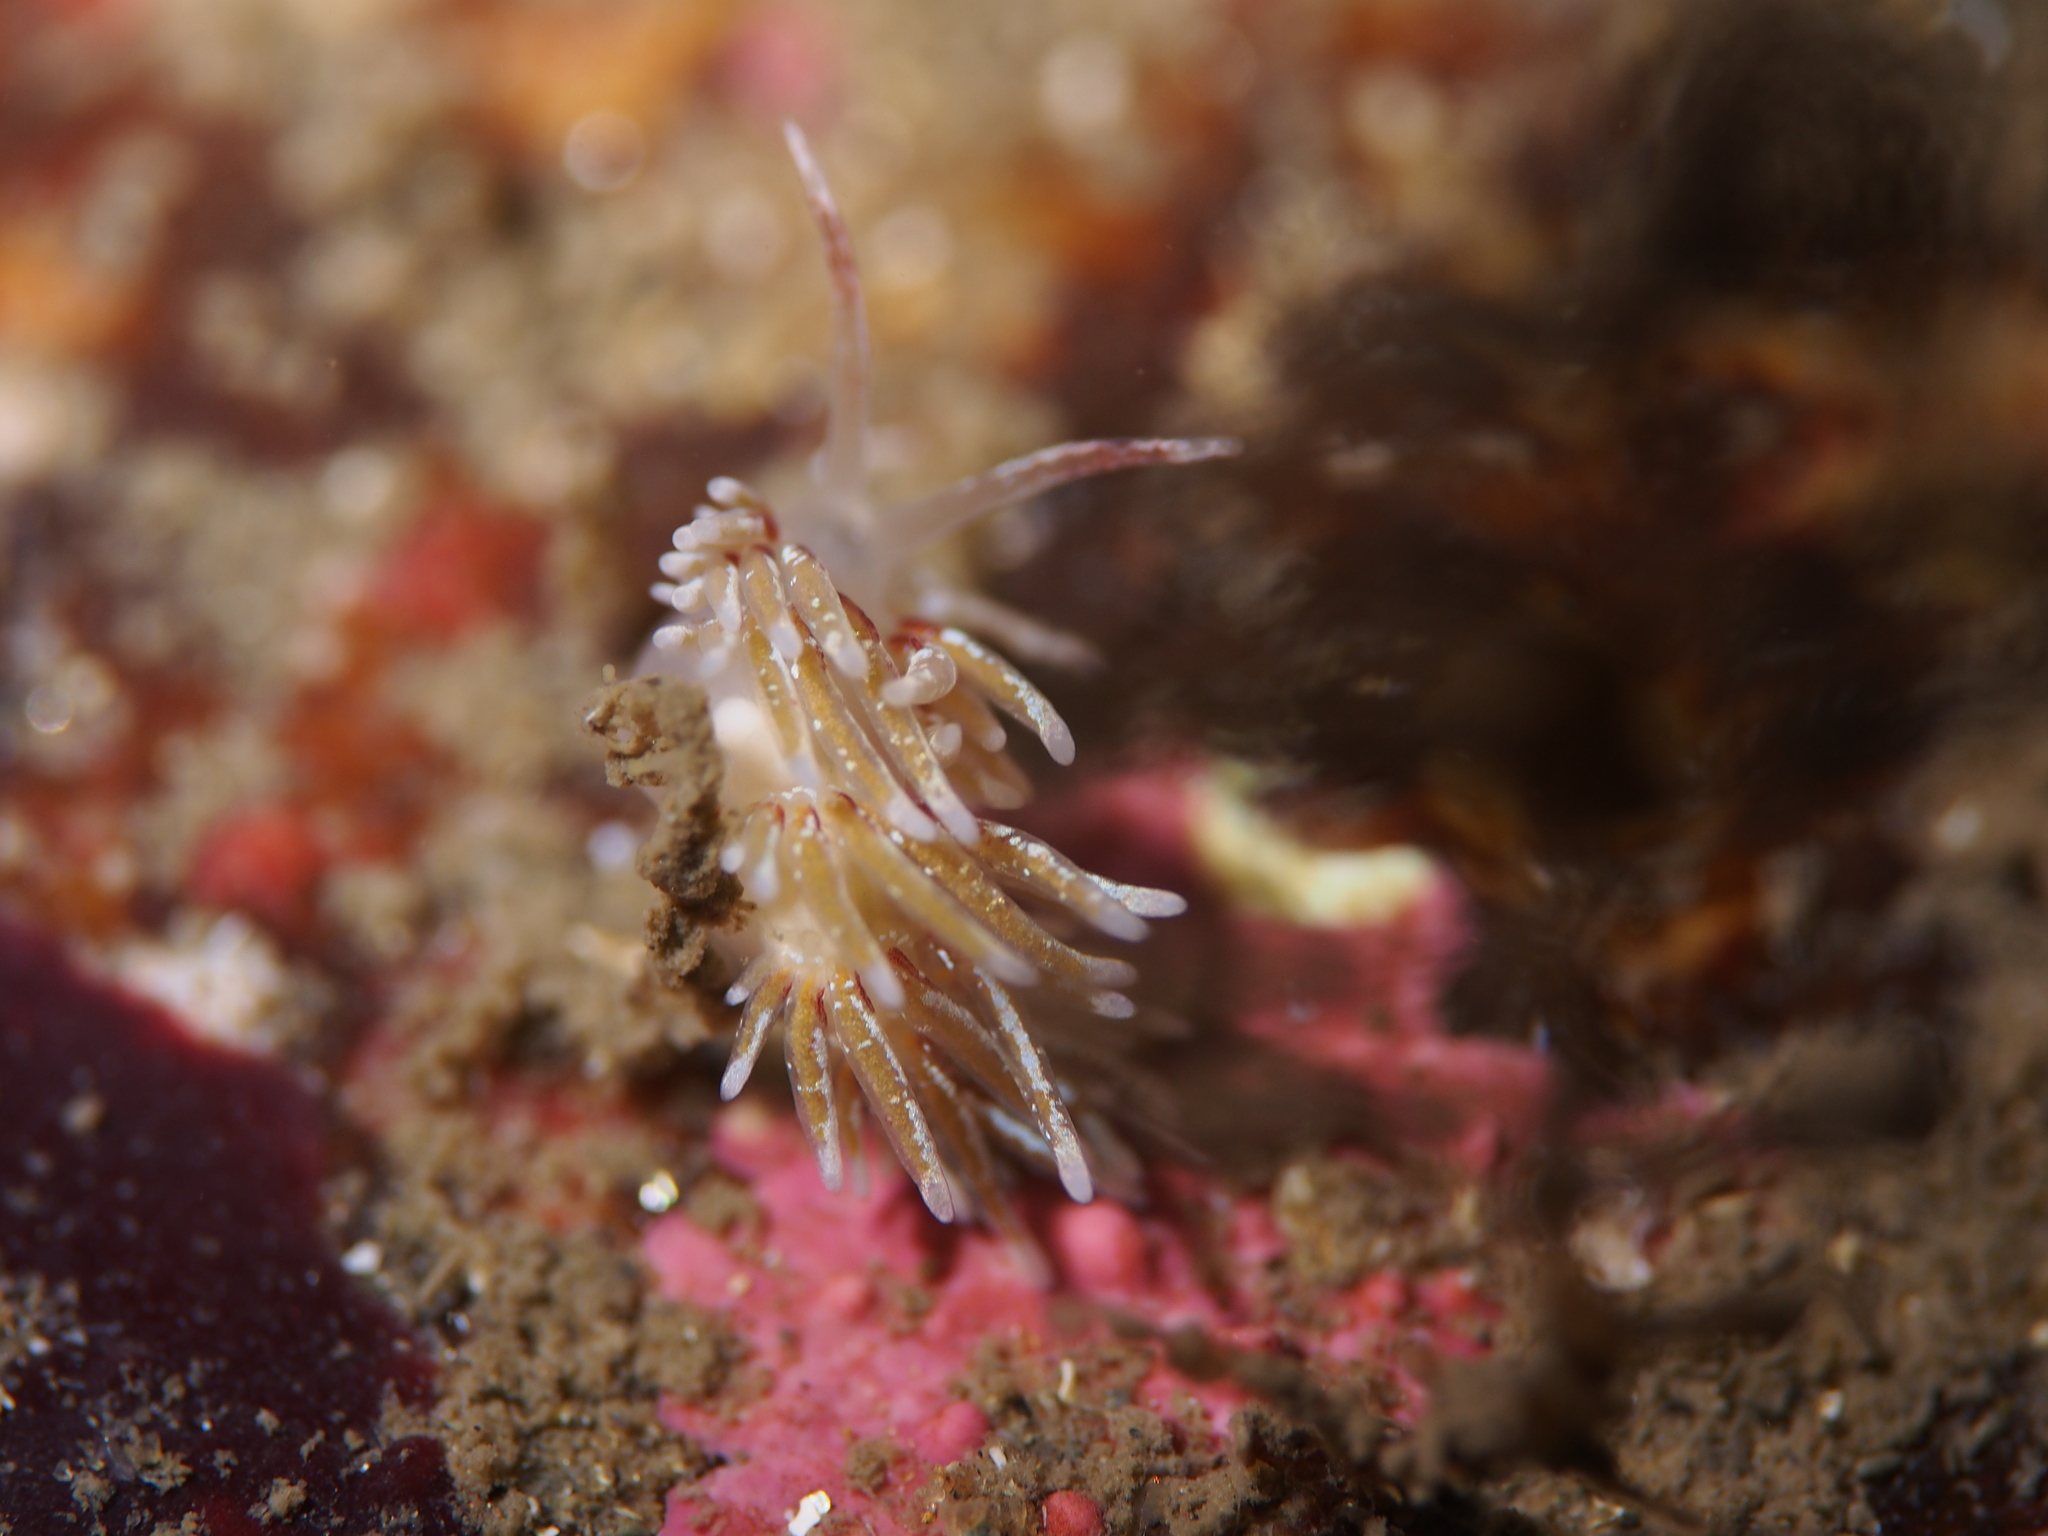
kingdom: Animalia
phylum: Mollusca
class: Gastropoda
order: Nudibranchia
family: Trinchesiidae
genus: Rubramoena
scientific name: Rubramoena rubescens
